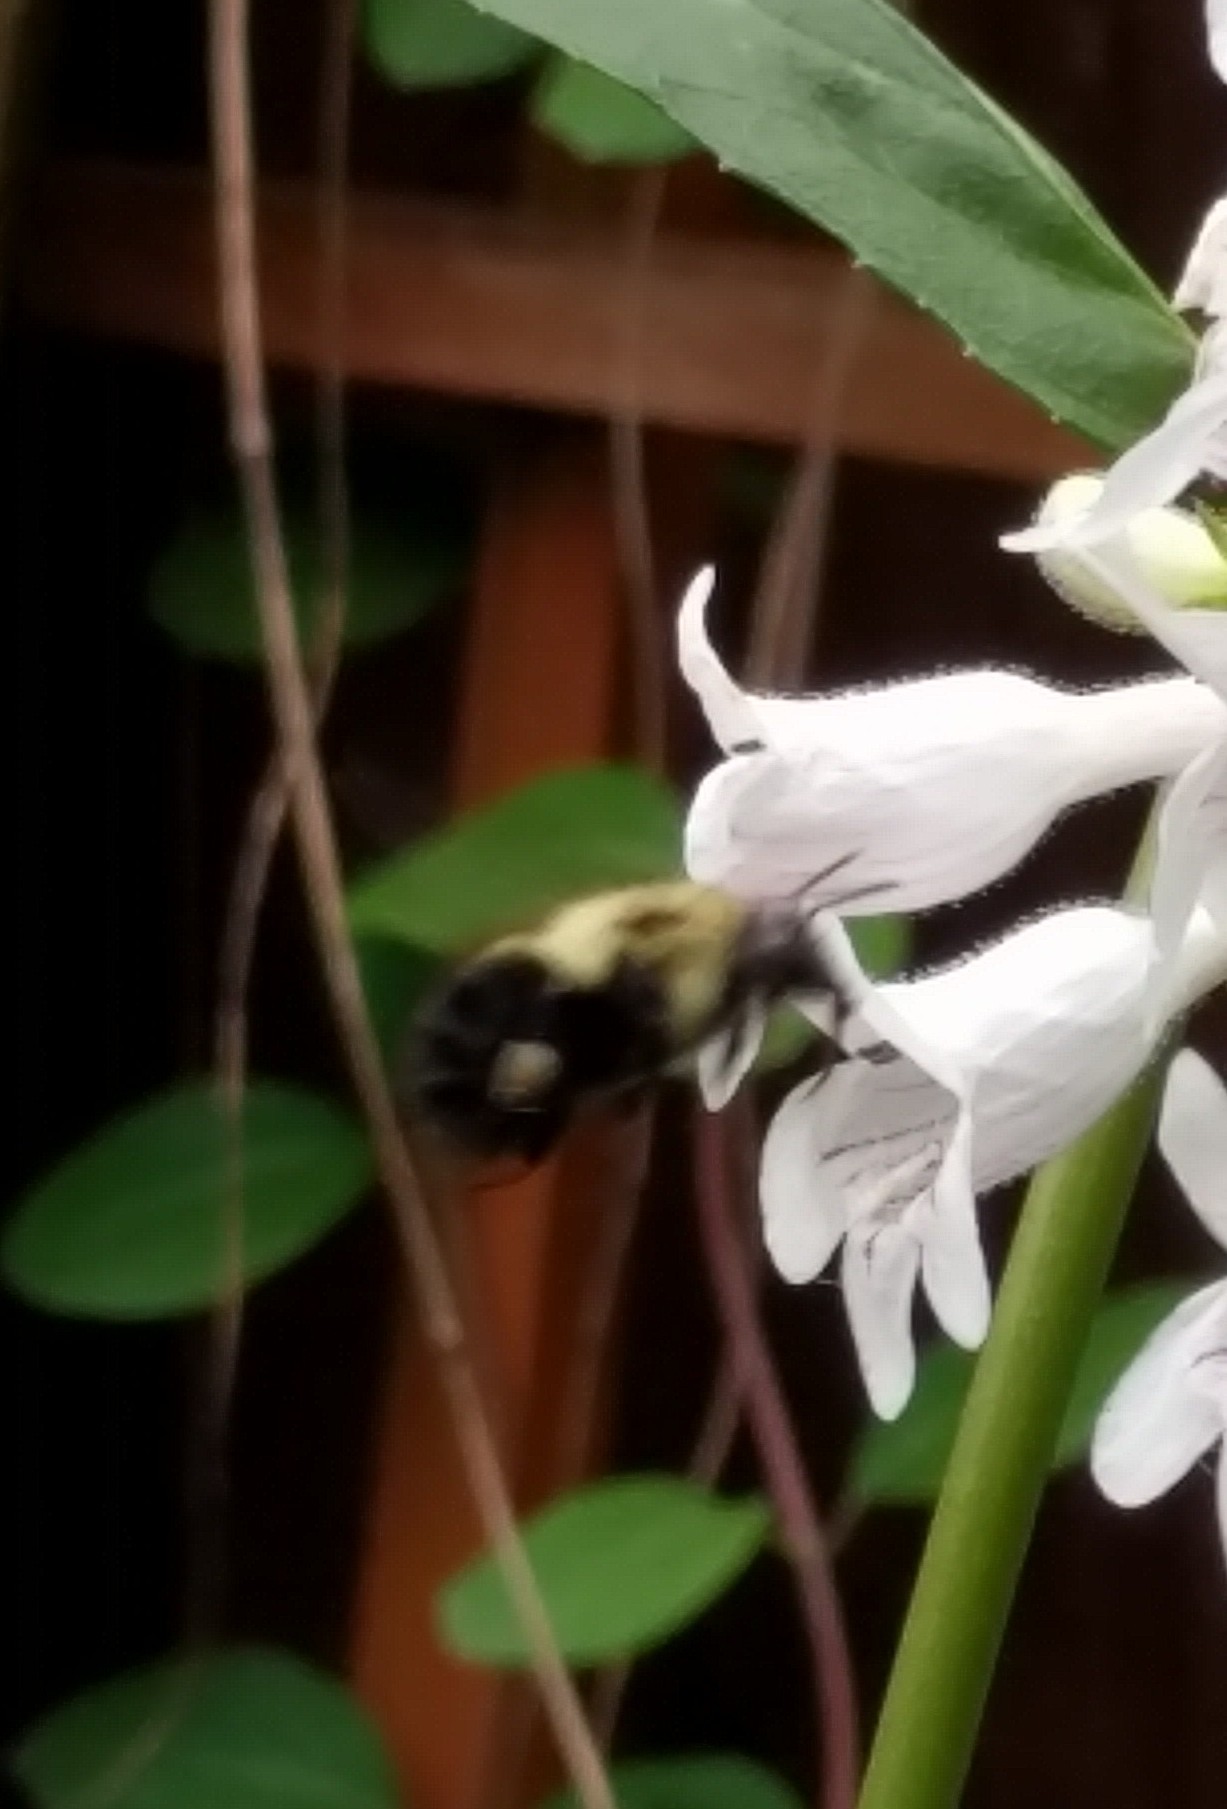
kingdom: Animalia
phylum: Arthropoda
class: Insecta
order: Hymenoptera
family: Apidae
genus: Bombus
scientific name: Bombus bimaculatus
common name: Two-spotted bumble bee
